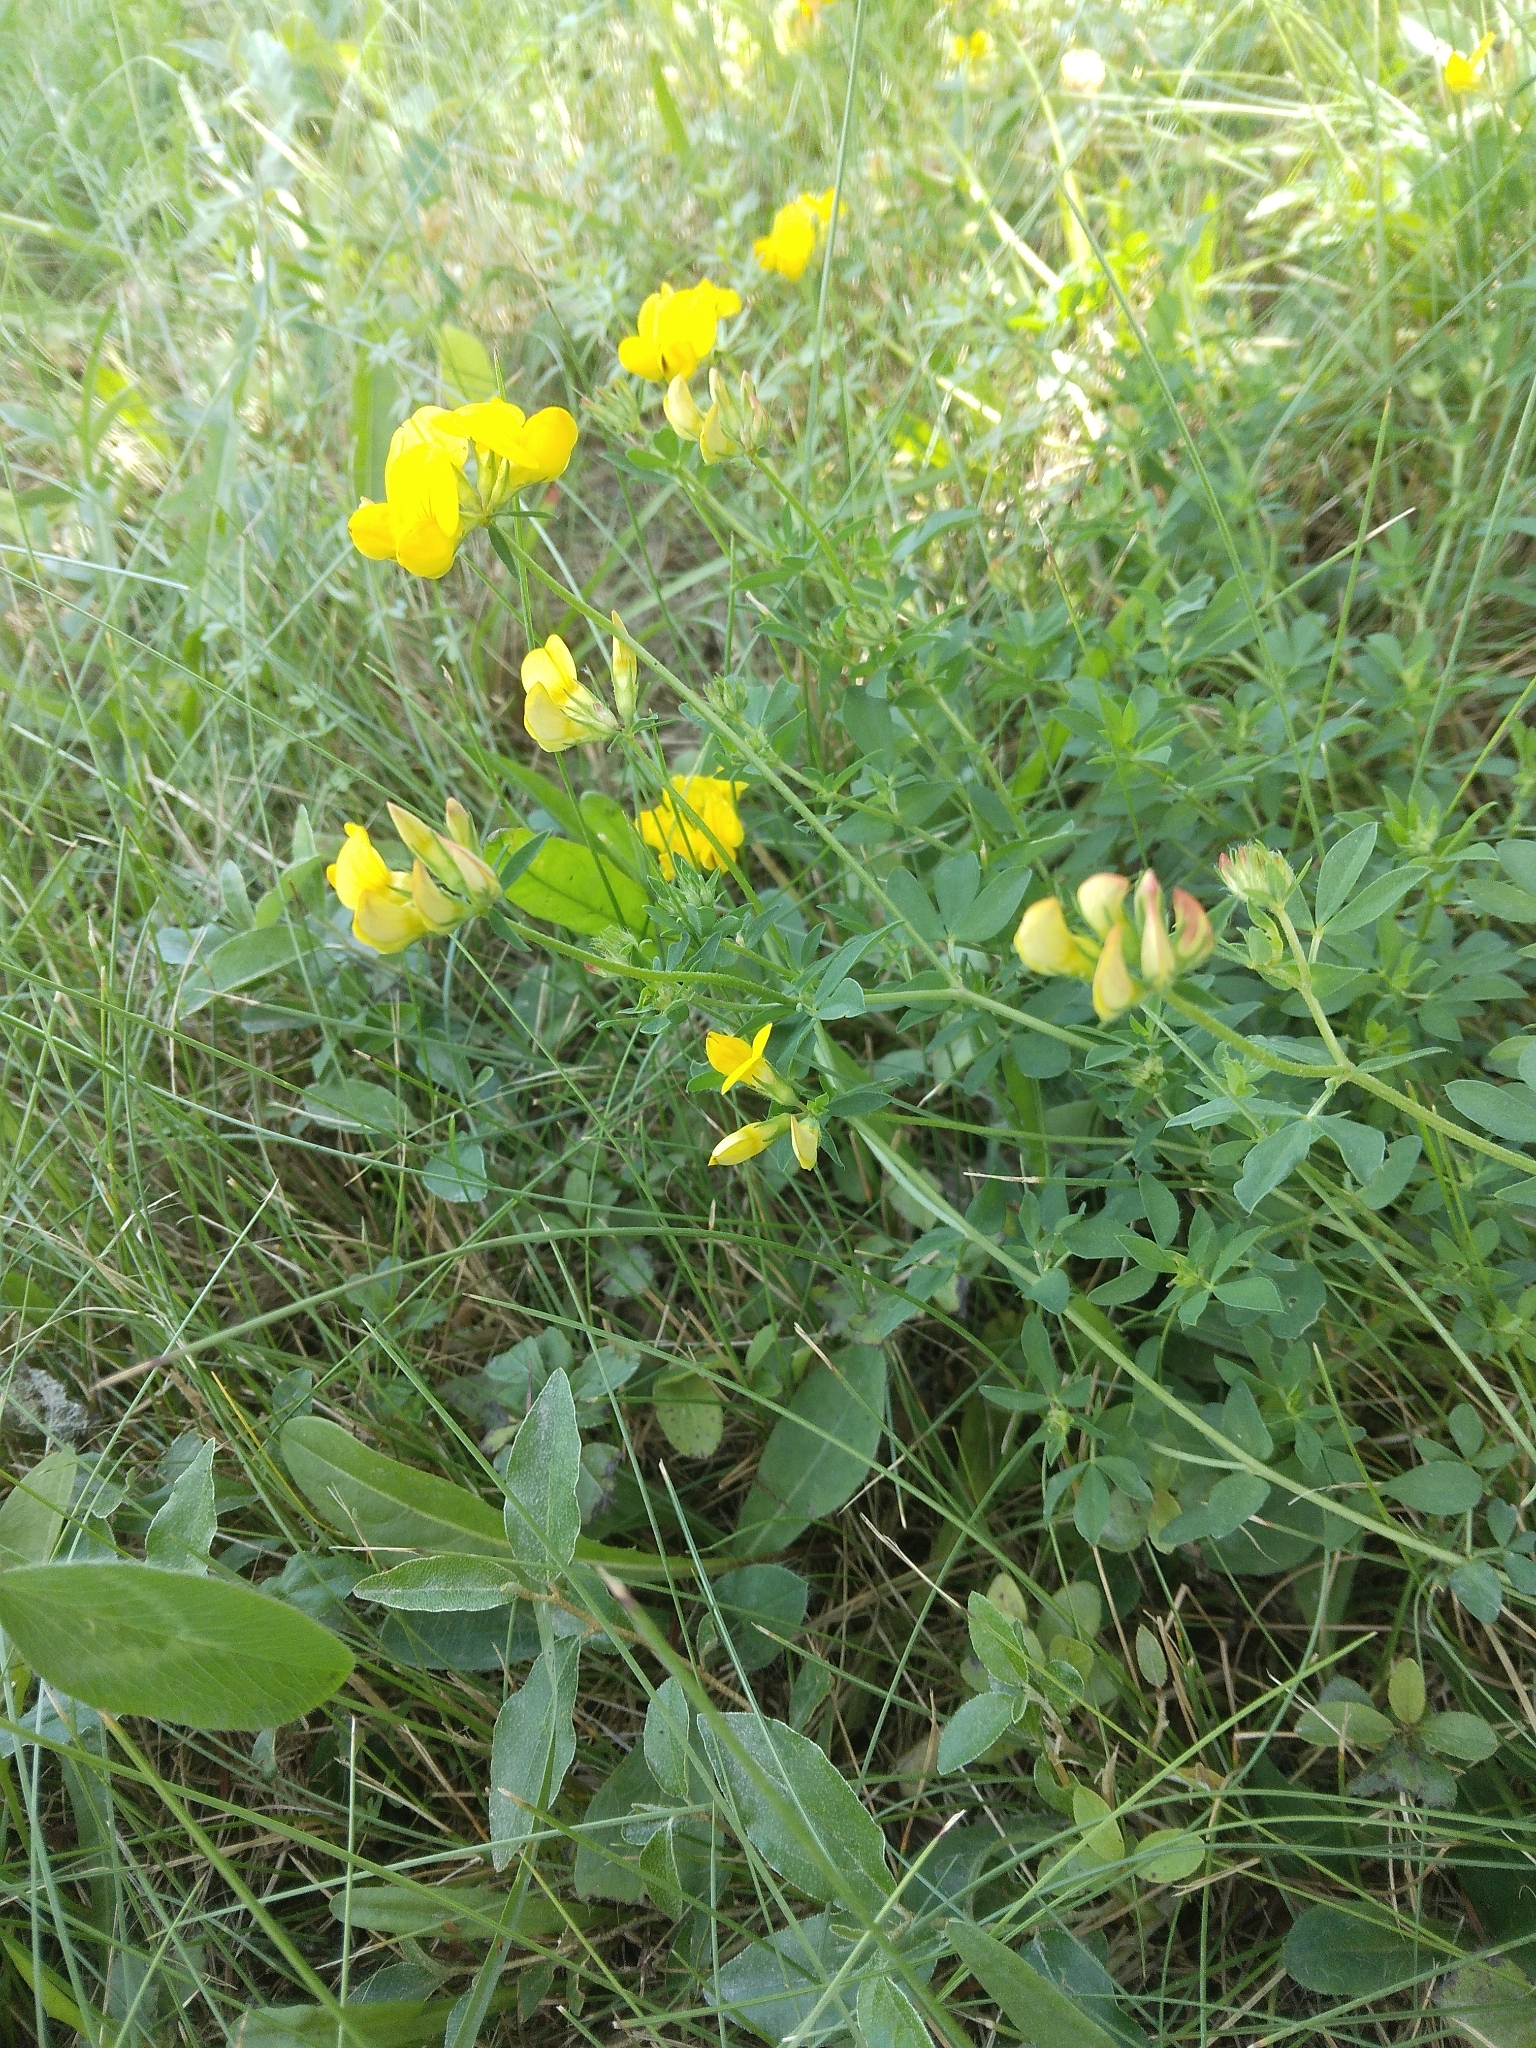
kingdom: Plantae
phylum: Tracheophyta
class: Magnoliopsida
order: Fabales
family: Fabaceae
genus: Lotus
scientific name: Lotus corniculatus
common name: Common bird's-foot-trefoil
